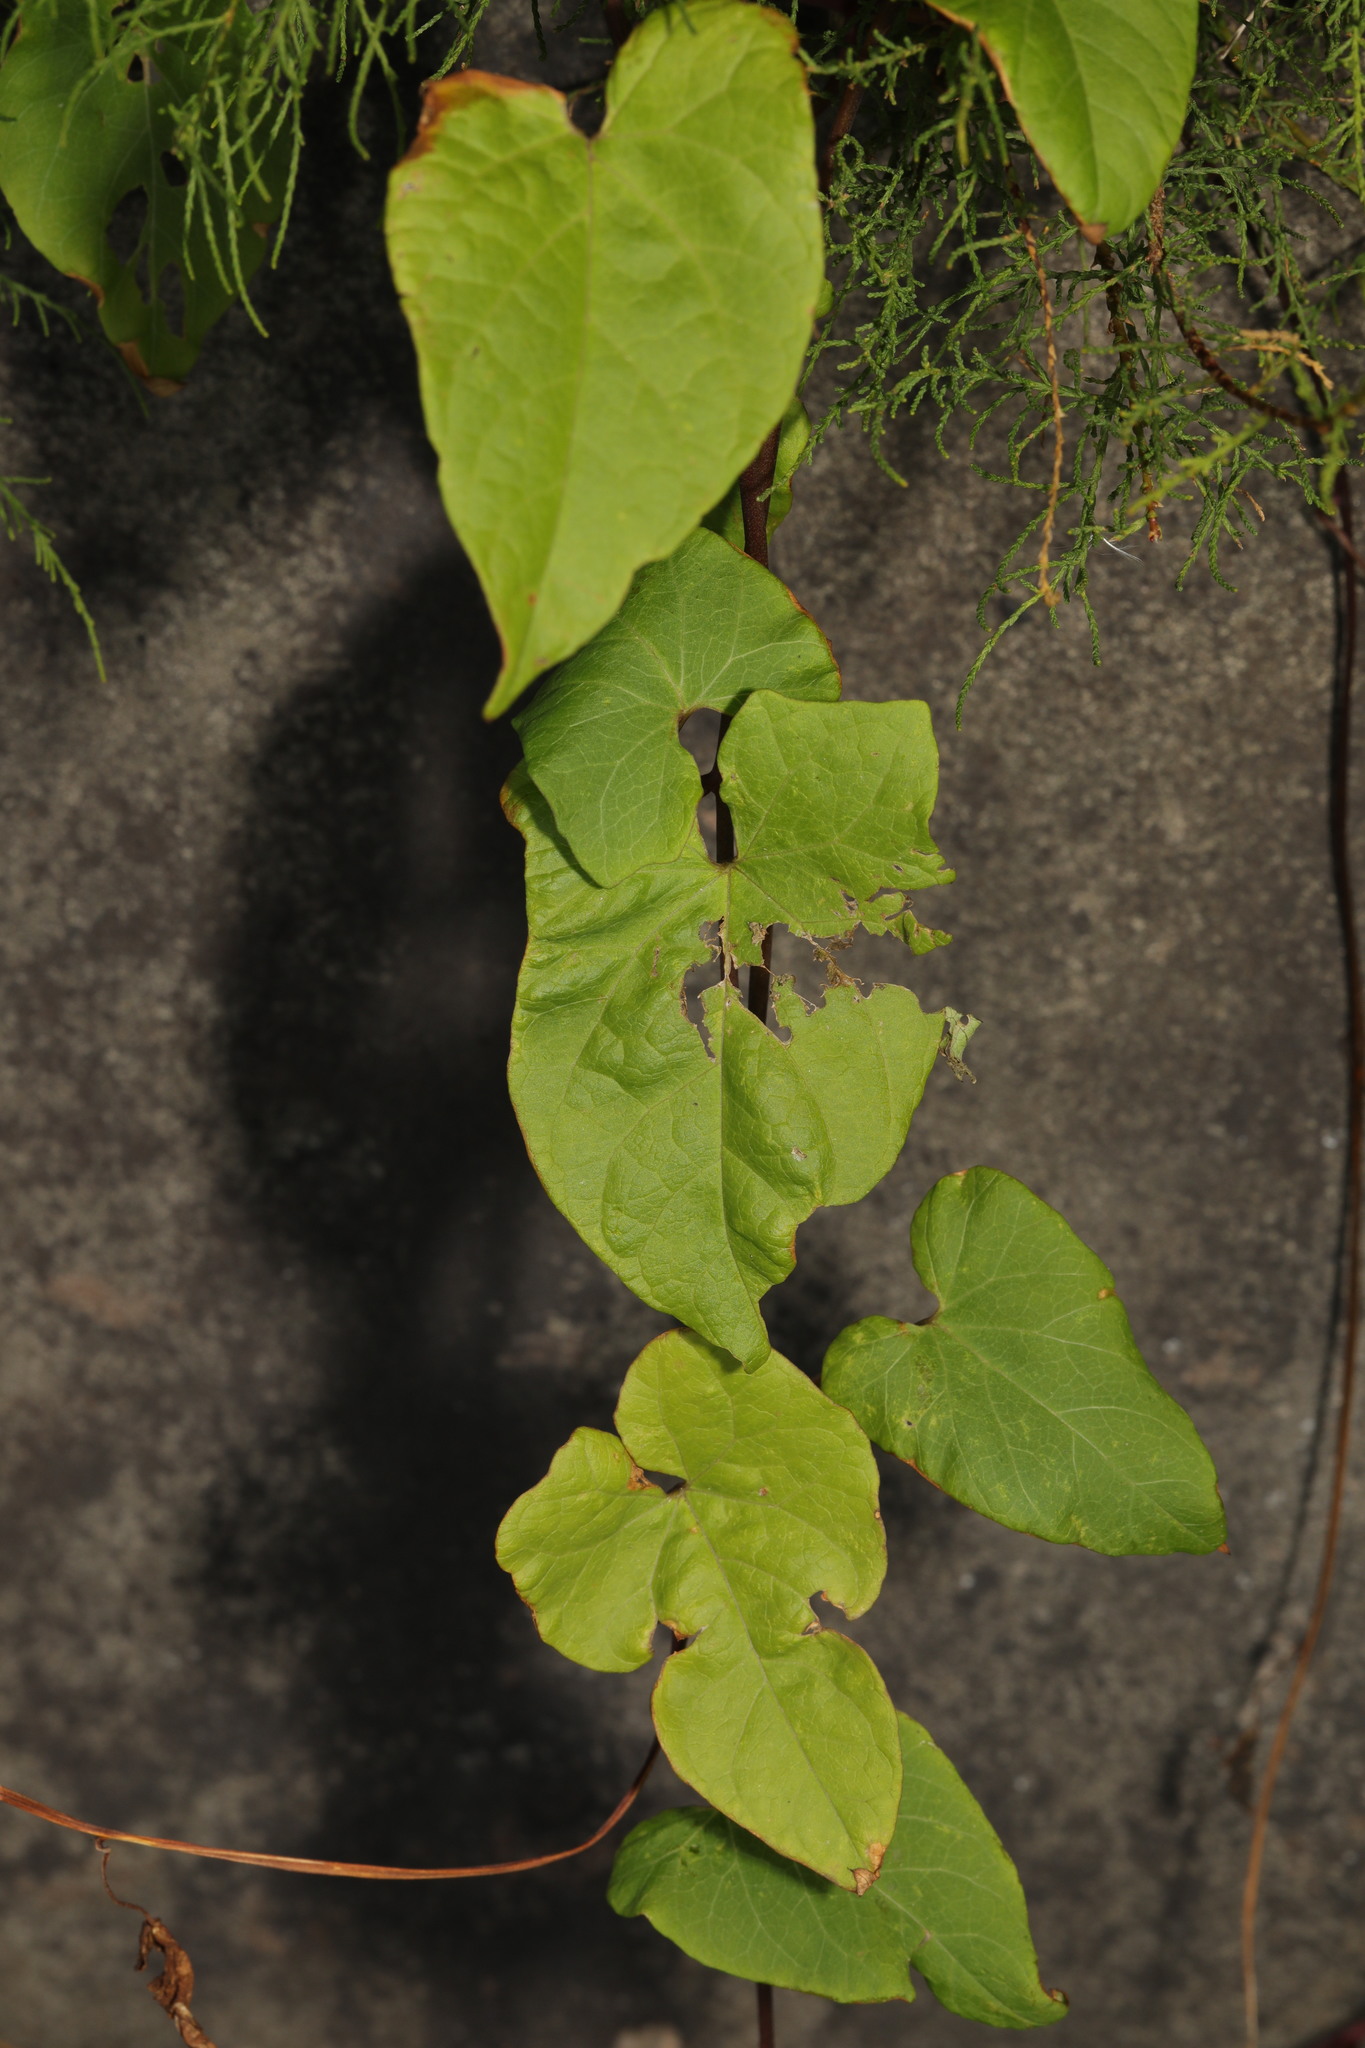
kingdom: Plantae
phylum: Tracheophyta
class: Magnoliopsida
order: Solanales
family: Convolvulaceae
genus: Calystegia
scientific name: Calystegia
